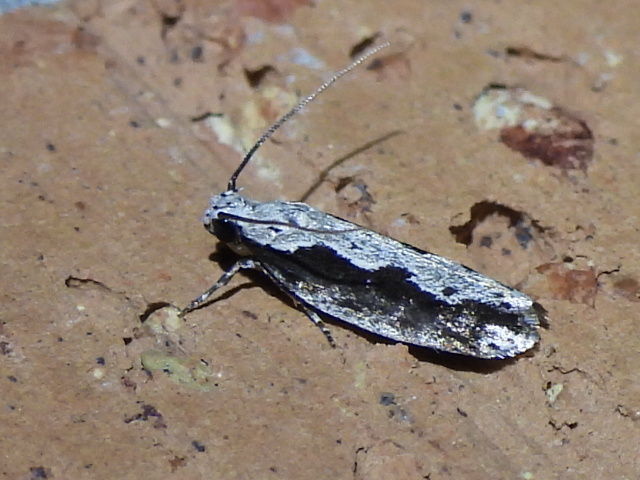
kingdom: Animalia
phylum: Arthropoda
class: Insecta
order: Lepidoptera
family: Ethmiidae
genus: Ethmia
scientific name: Ethmia semiombra
